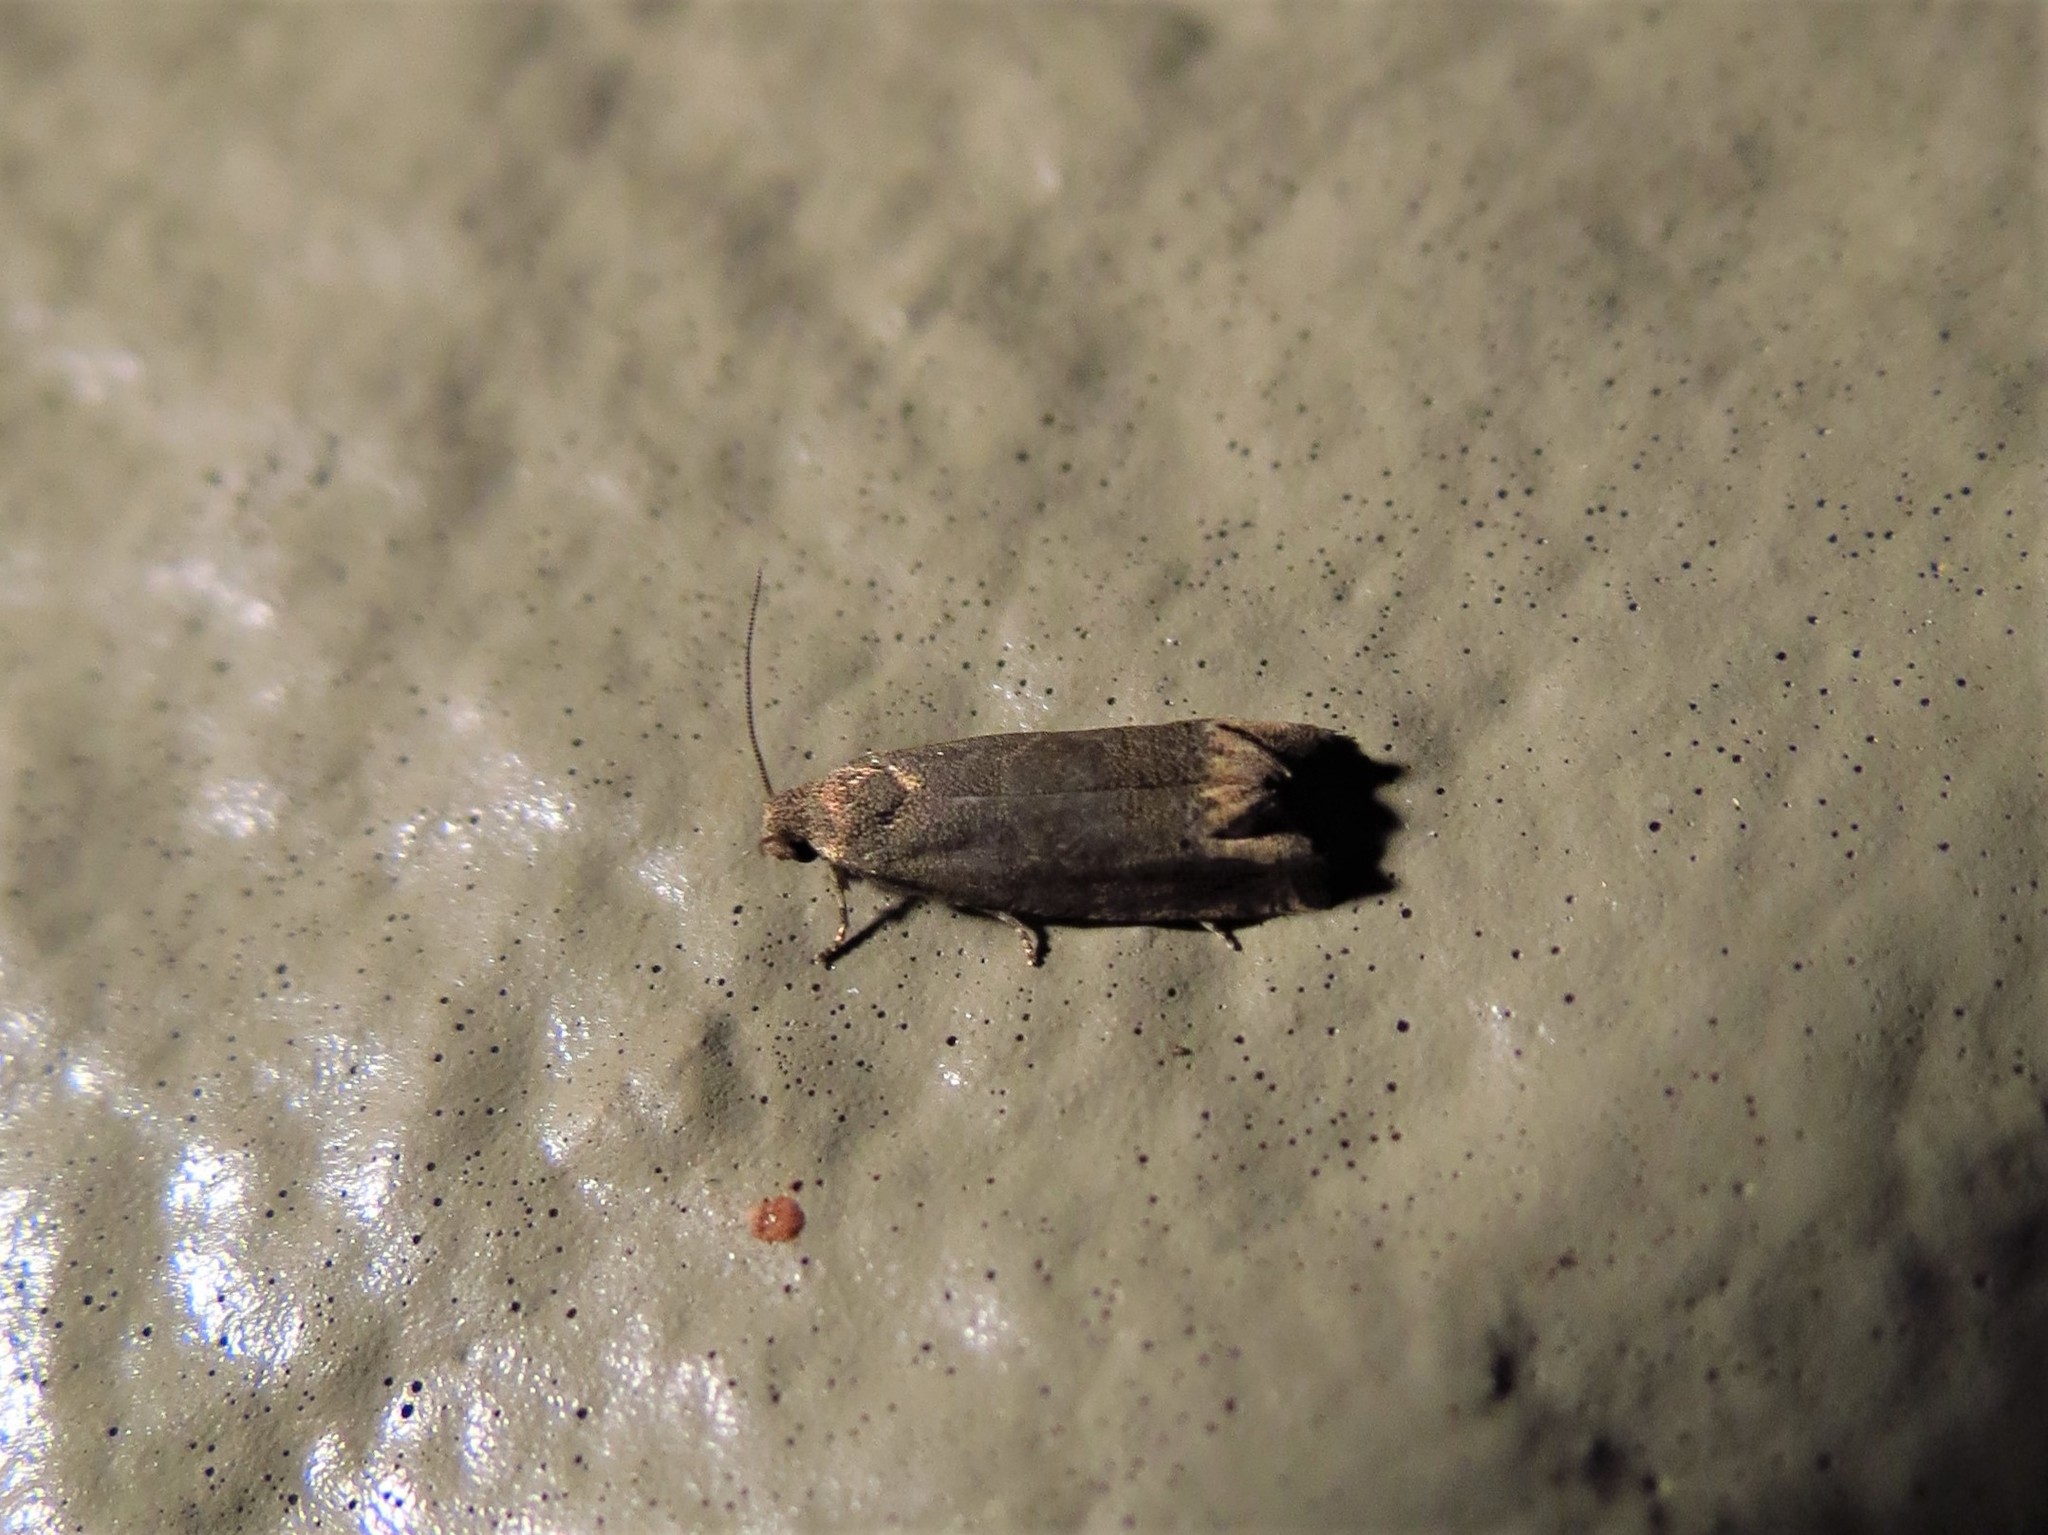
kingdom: Animalia
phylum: Arthropoda
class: Insecta
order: Lepidoptera
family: Tortricidae
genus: Epiblema
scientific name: Epiblema strenuana
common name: Ragweed borer moth
